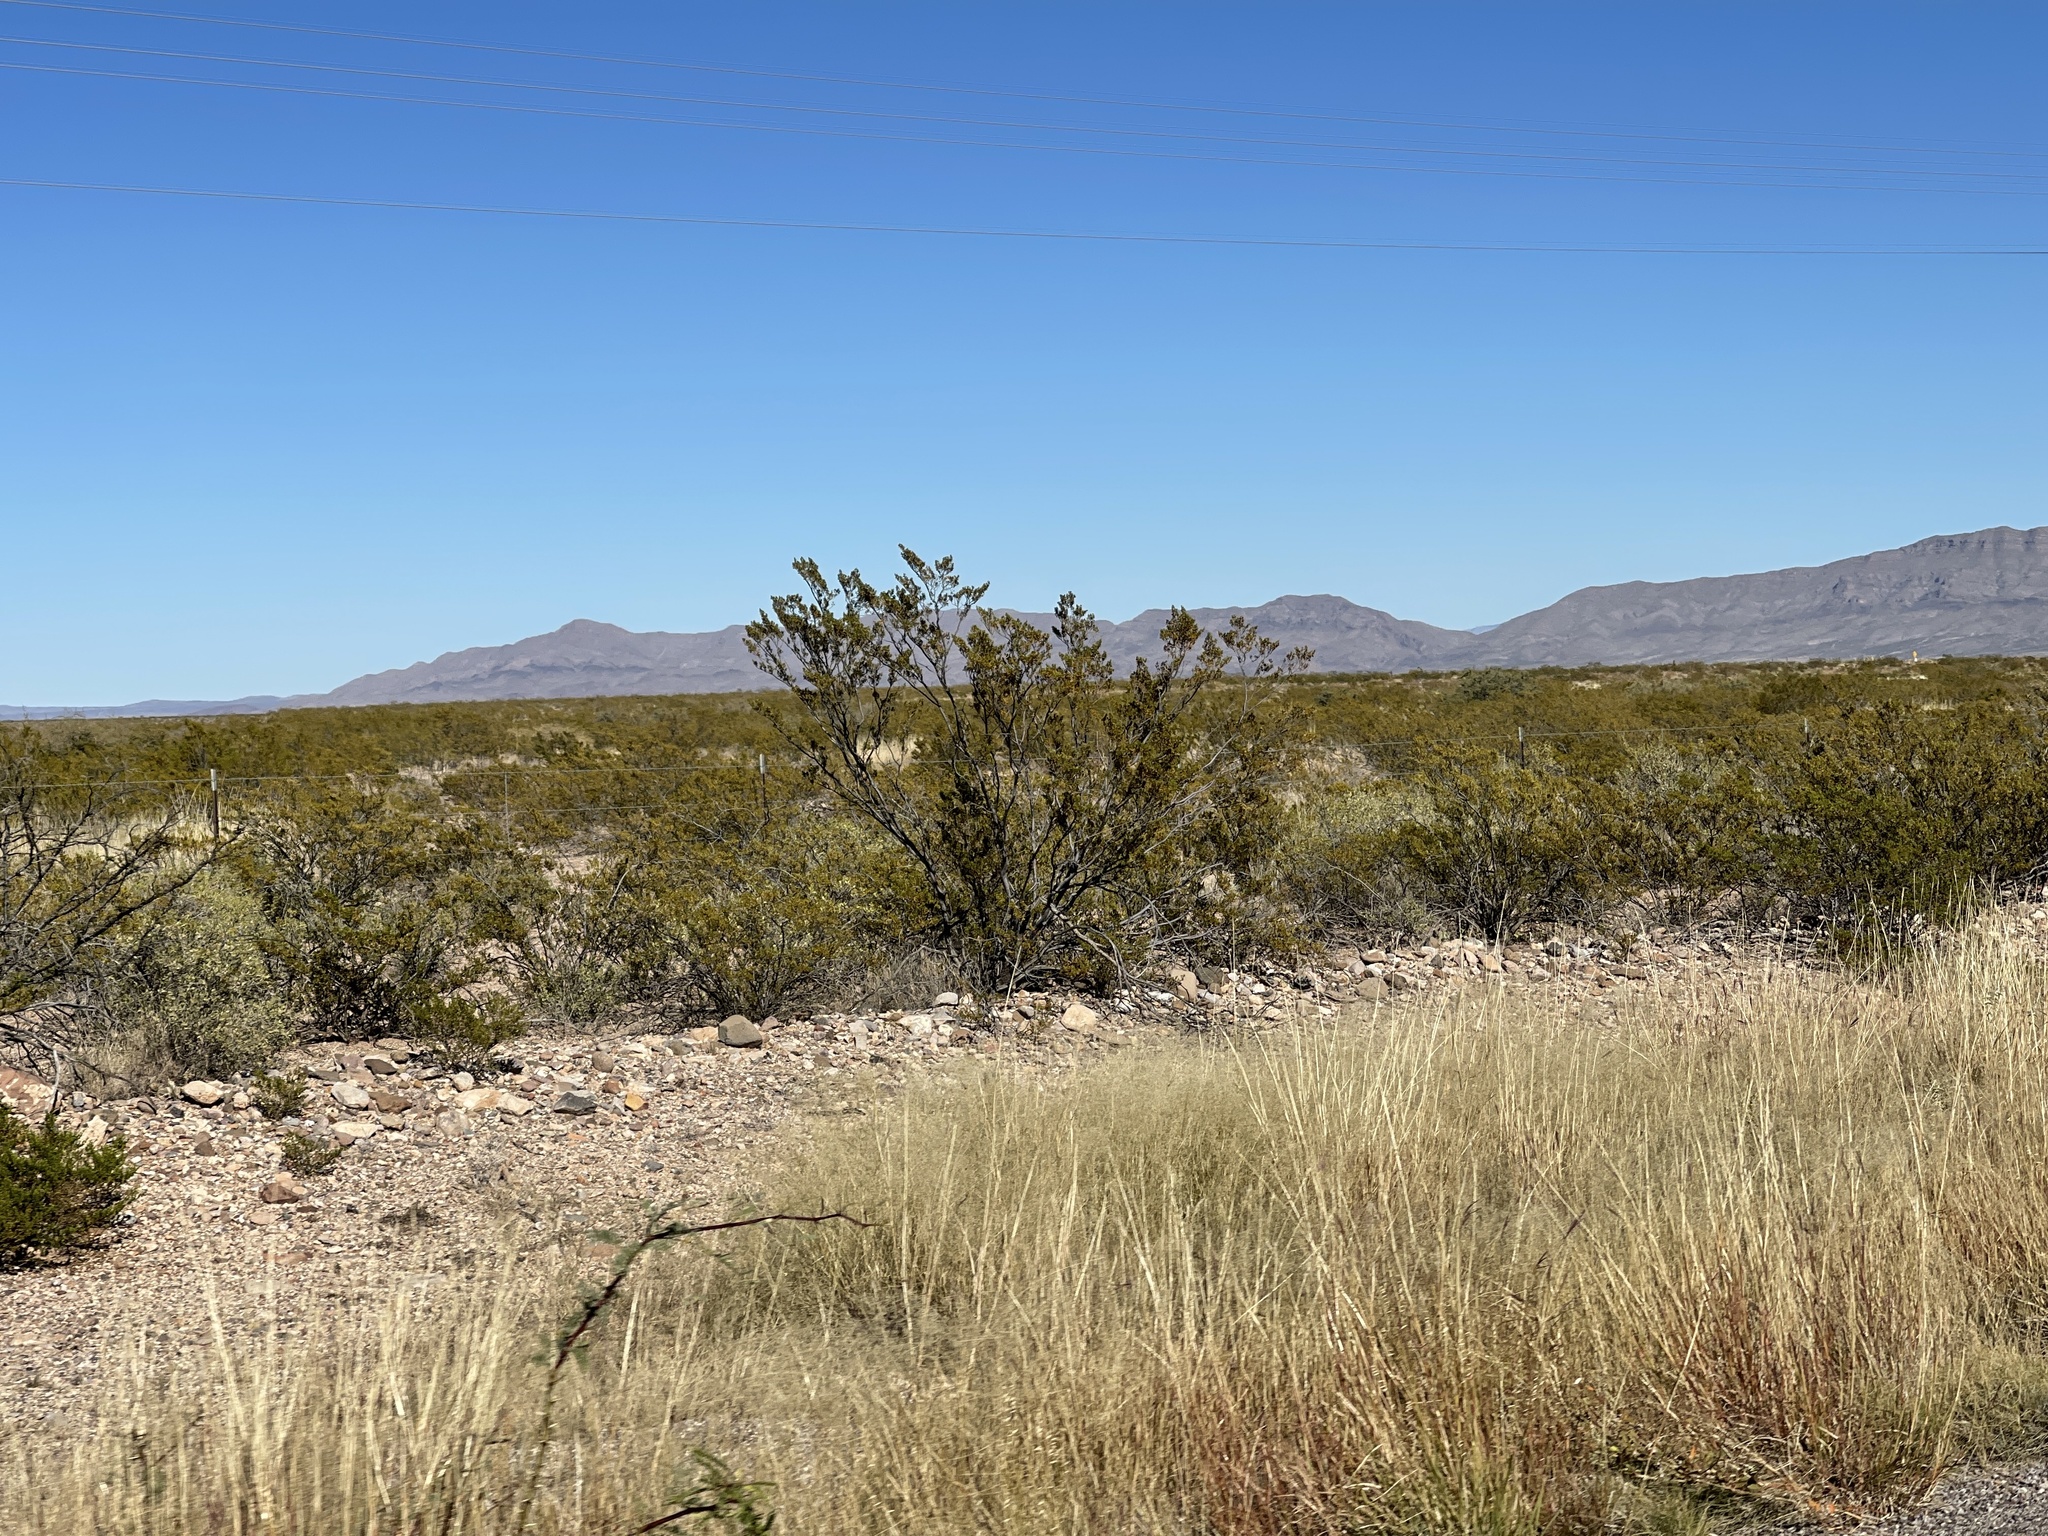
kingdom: Plantae
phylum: Tracheophyta
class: Magnoliopsida
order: Zygophyllales
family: Zygophyllaceae
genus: Larrea
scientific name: Larrea tridentata
